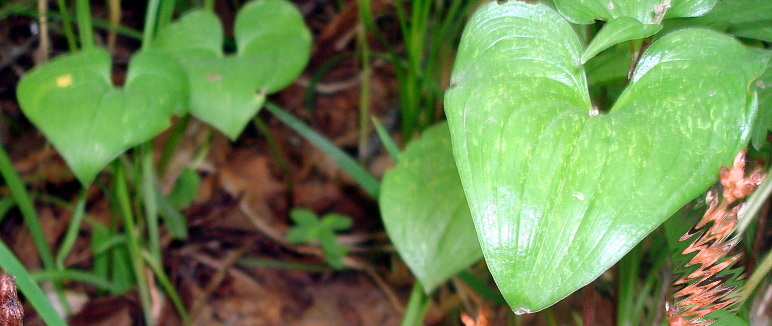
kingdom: Plantae
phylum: Tracheophyta
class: Liliopsida
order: Asparagales
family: Asparagaceae
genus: Maianthemum
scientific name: Maianthemum dilatatum
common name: False lily-of-the-valley
